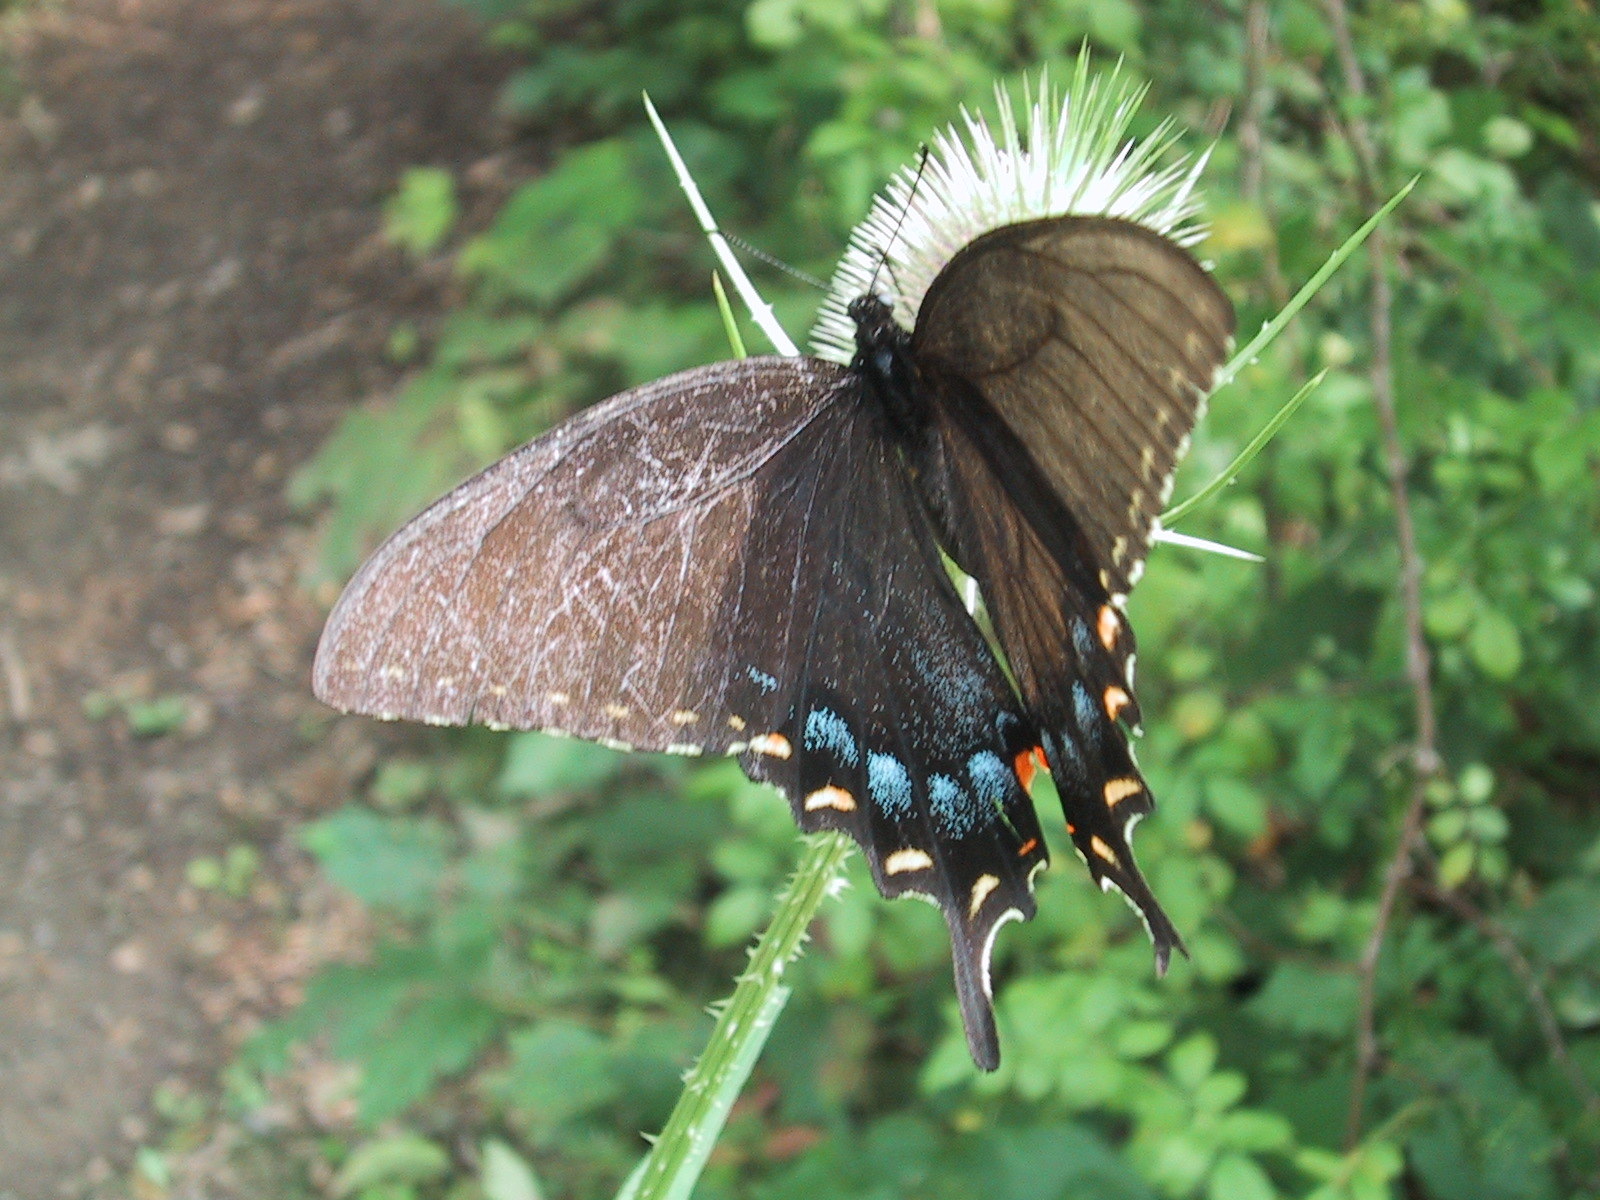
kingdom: Animalia
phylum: Arthropoda
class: Insecta
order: Lepidoptera
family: Papilionidae
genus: Papilio
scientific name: Papilio glaucus
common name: Tiger swallowtail
